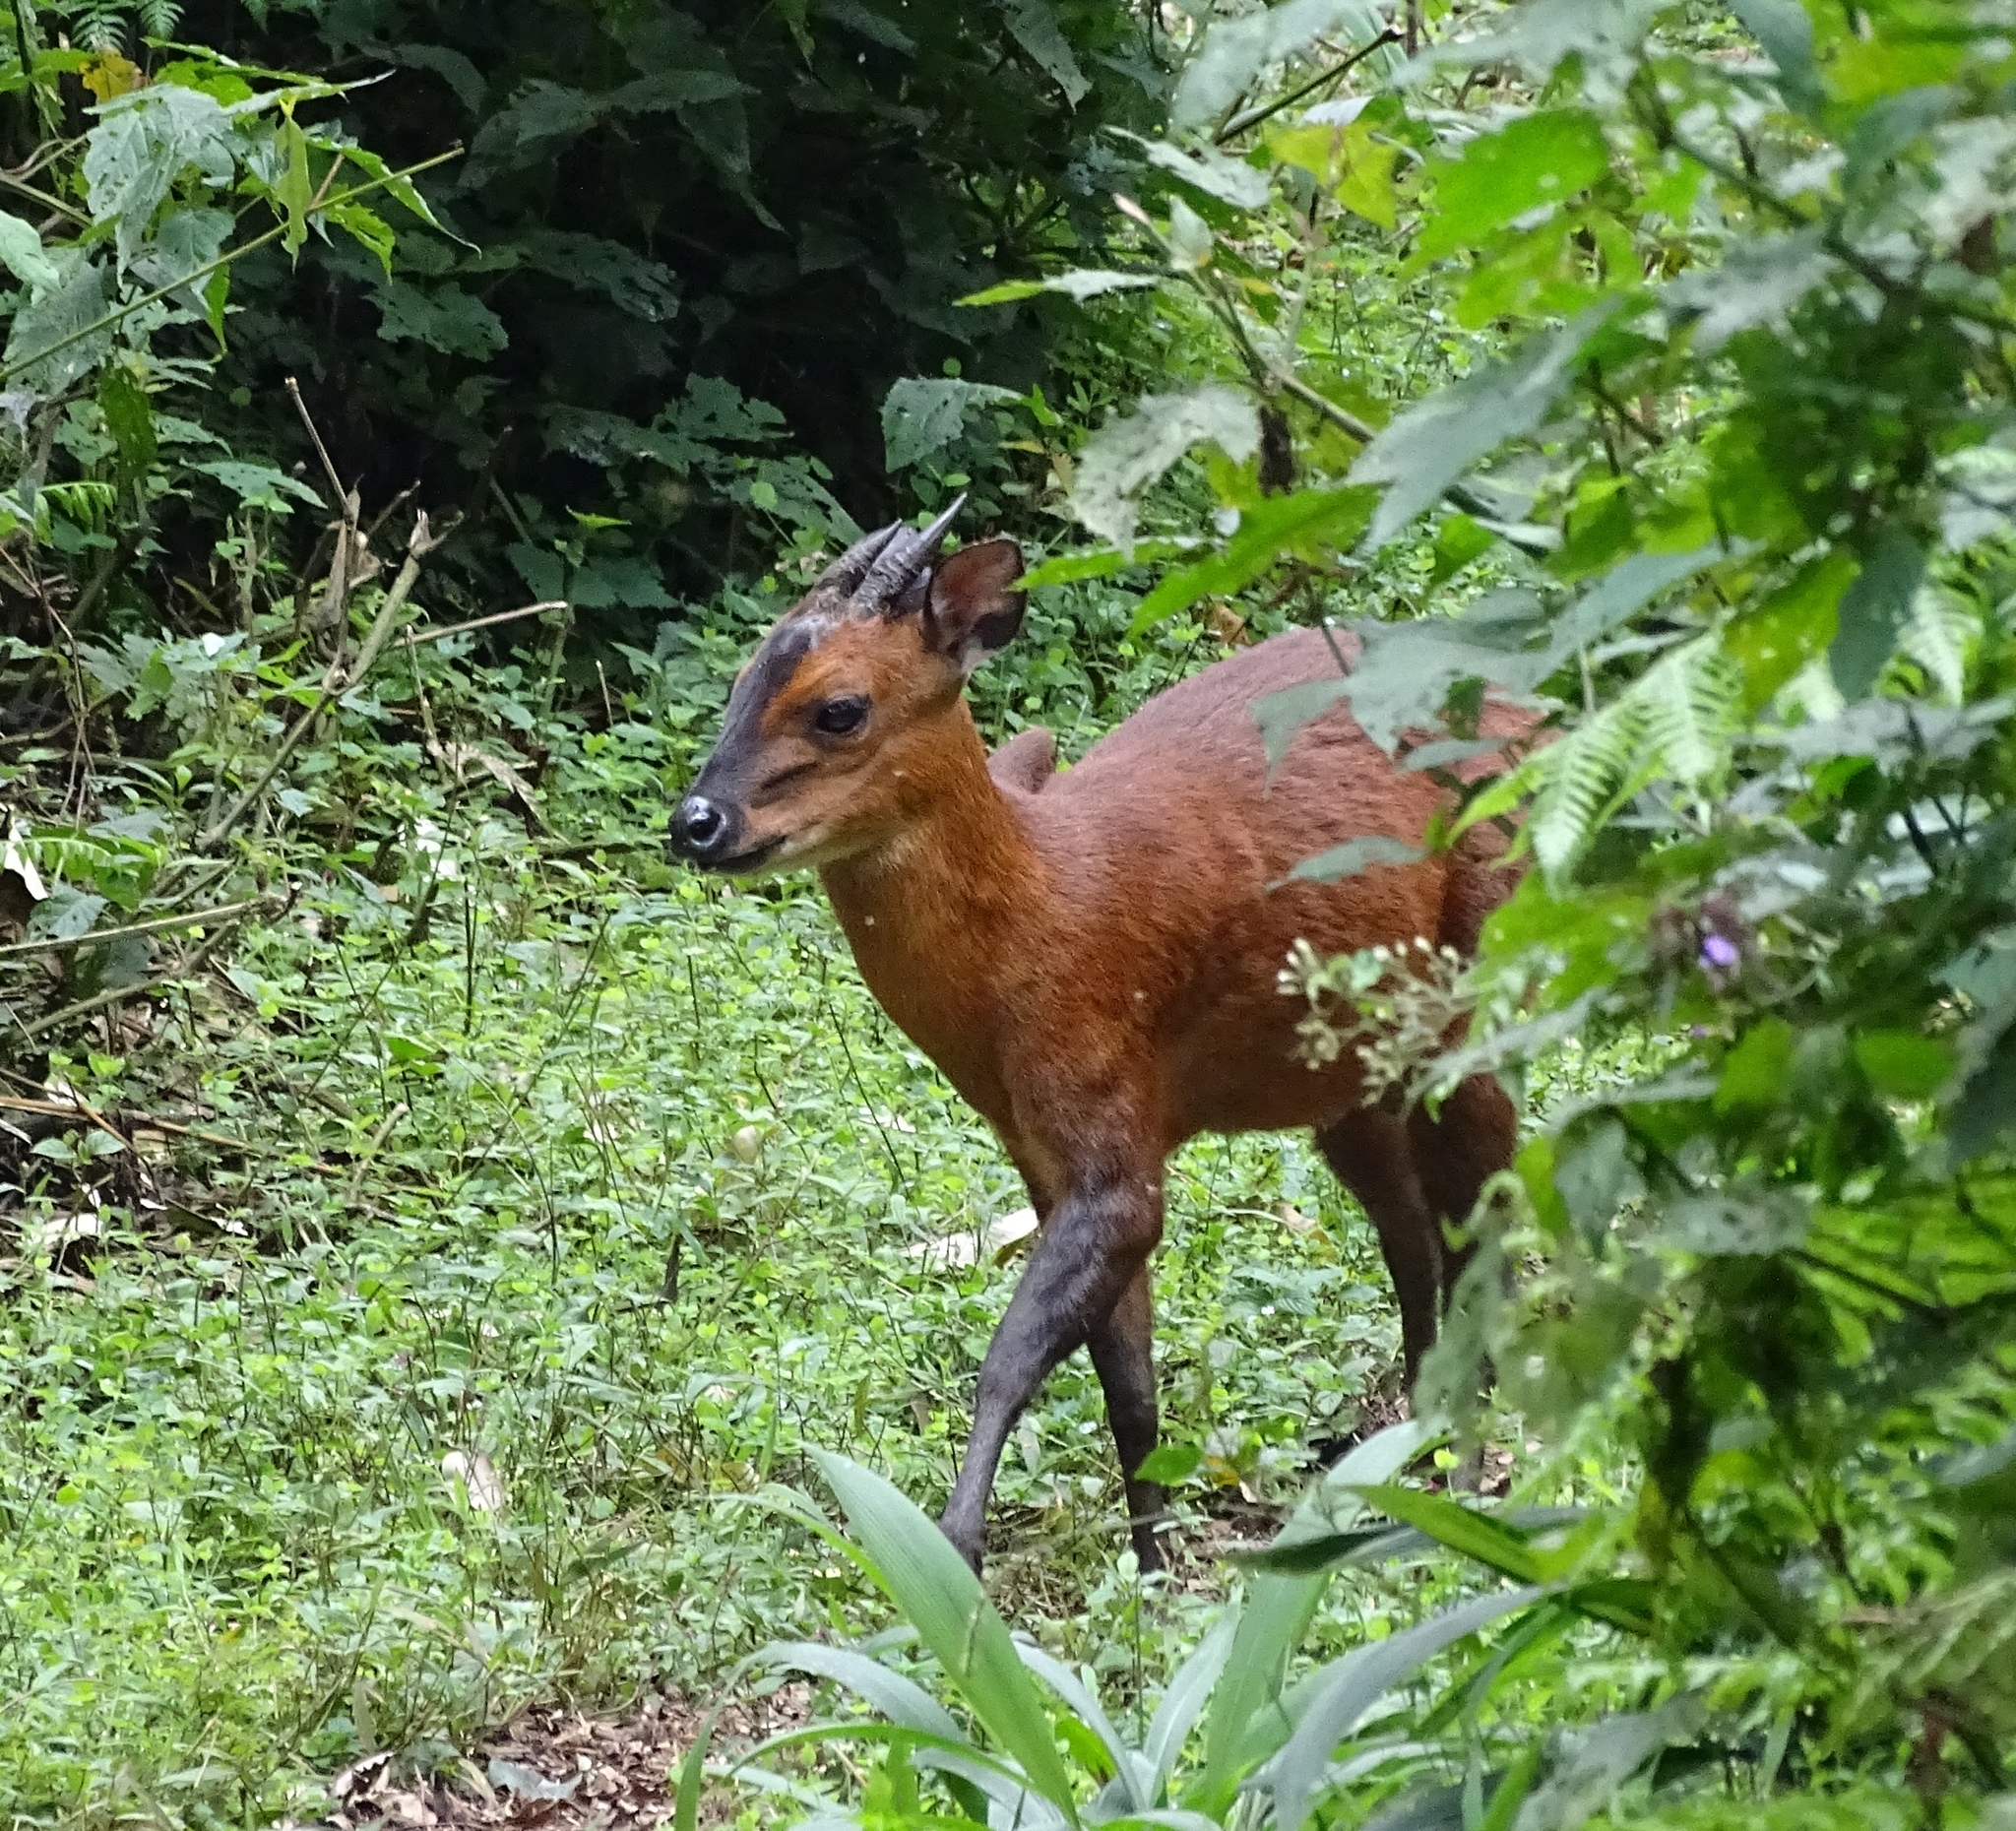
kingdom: Animalia
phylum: Chordata
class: Mammalia
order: Artiodactyla
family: Bovidae
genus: Cephalophus
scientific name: Cephalophus nigrifrons
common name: Black-fronted duiker
